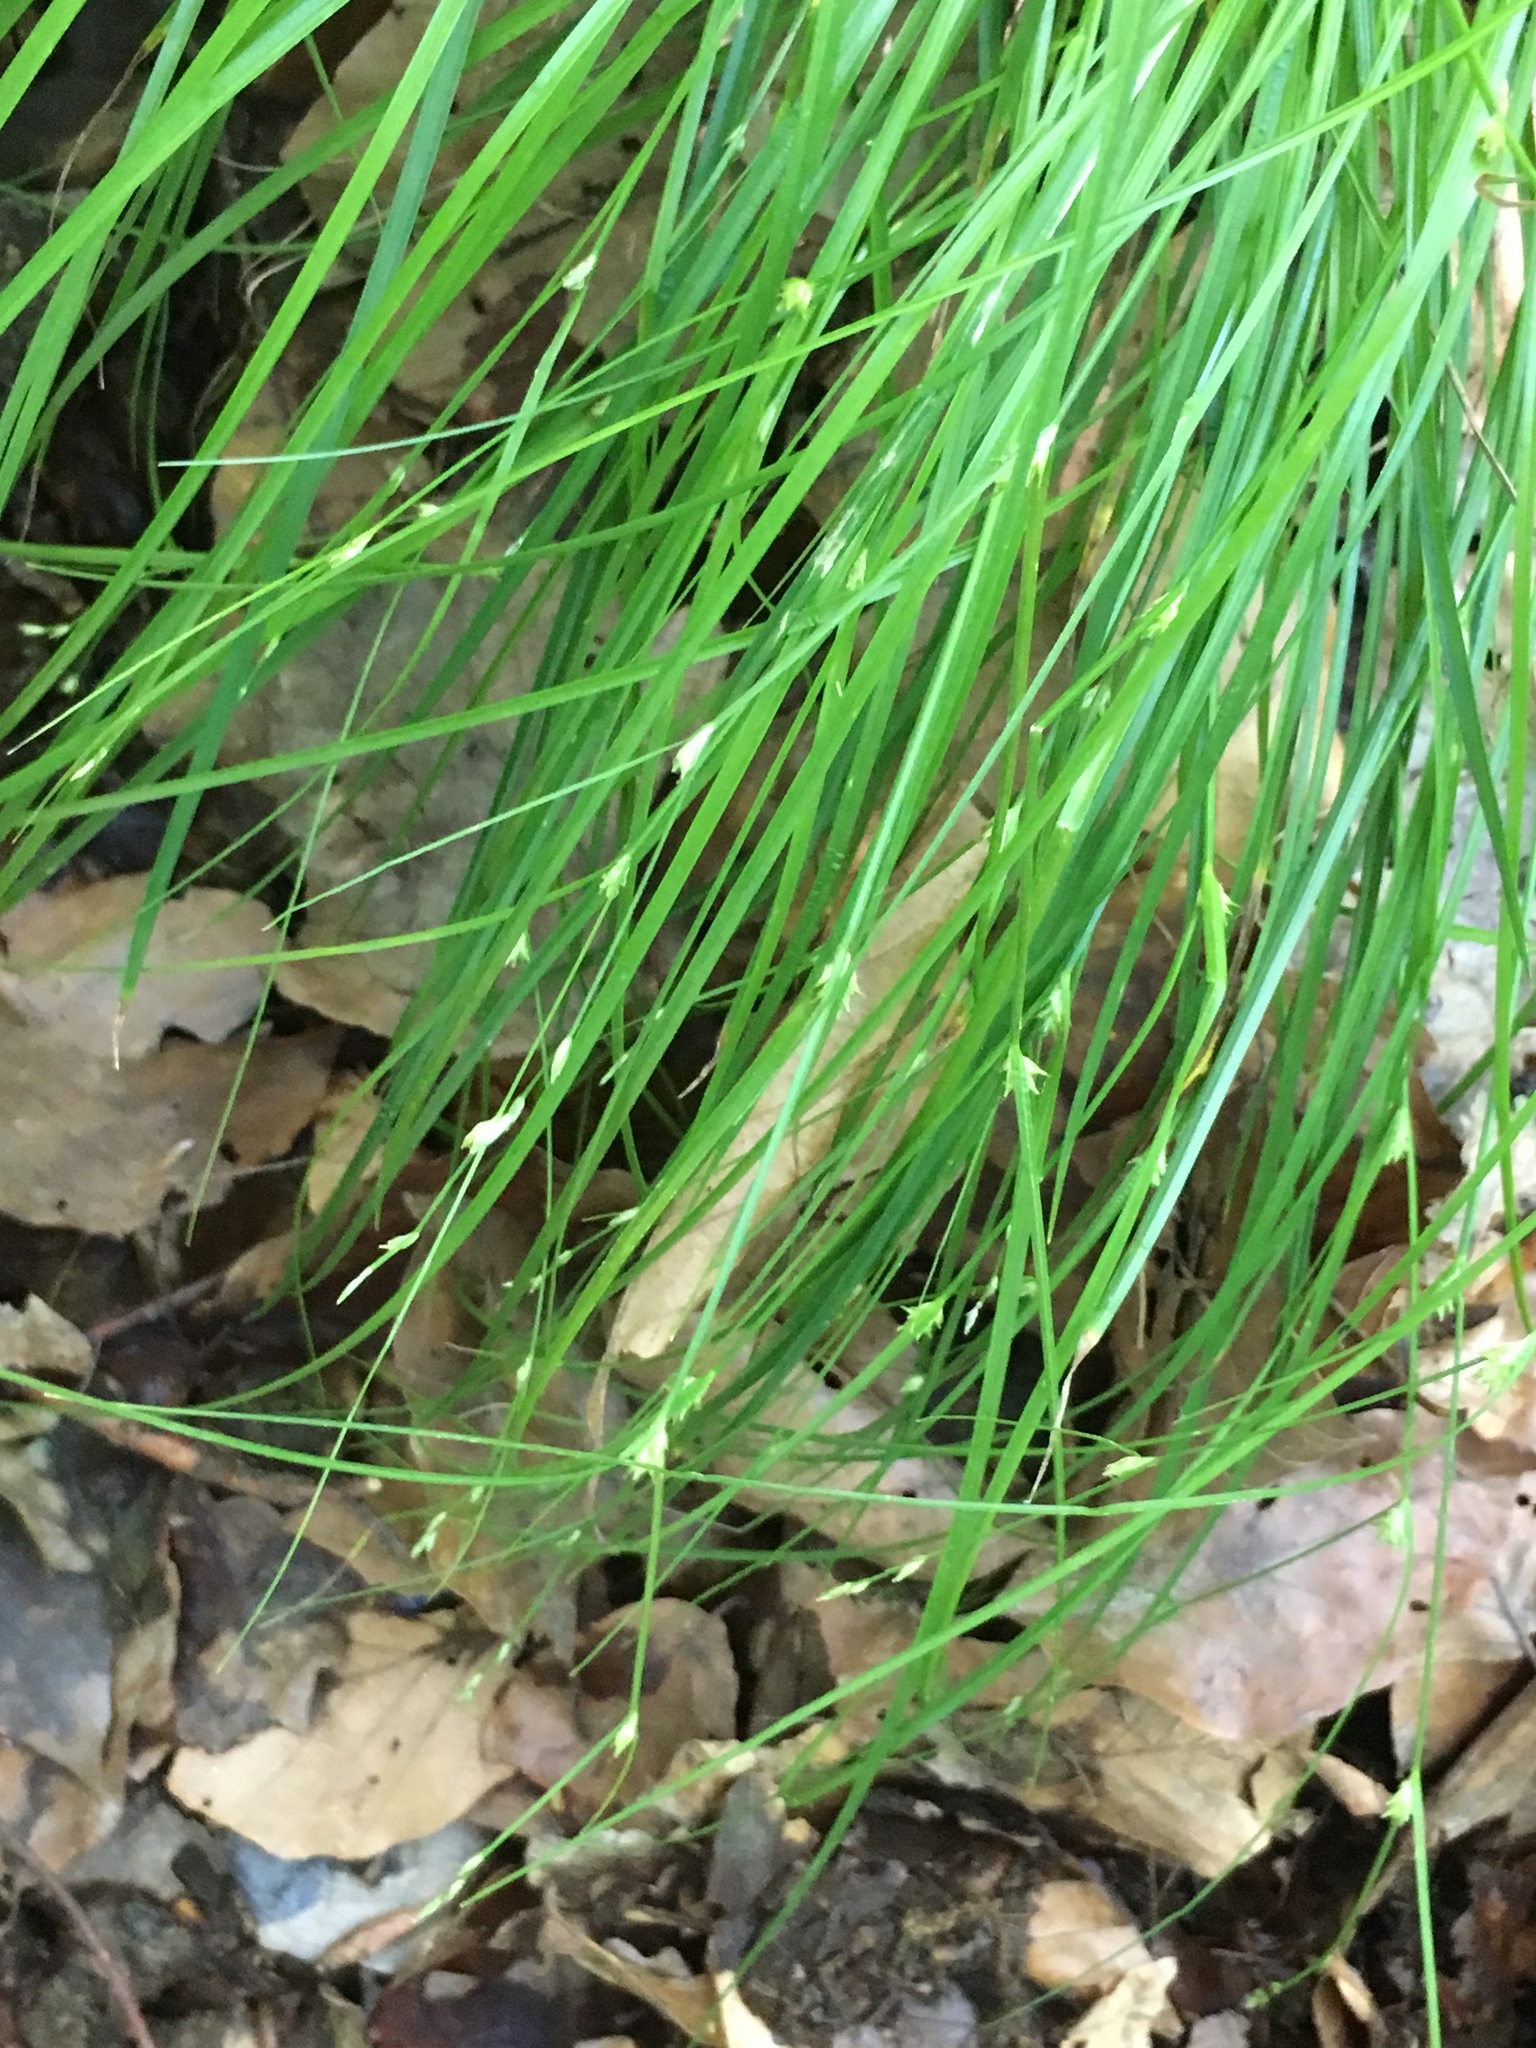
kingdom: Plantae
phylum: Tracheophyta
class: Liliopsida
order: Poales
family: Cyperaceae
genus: Carex
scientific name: Carex remota
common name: Remote sedge
